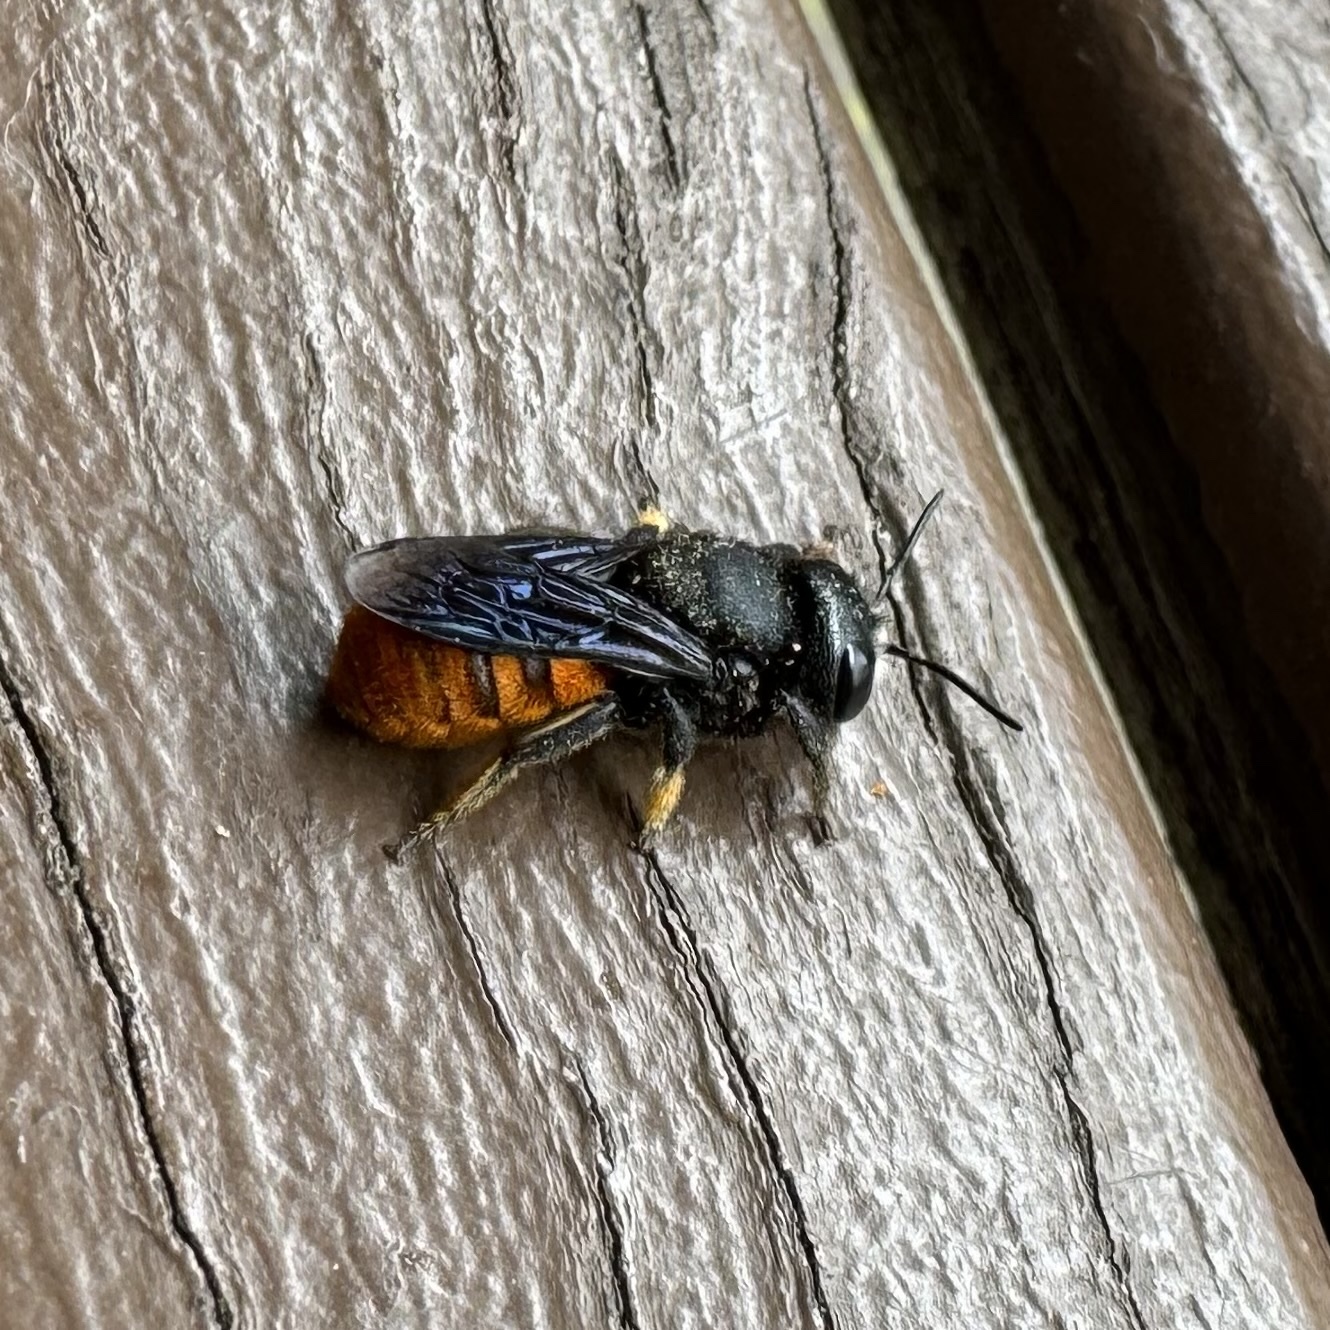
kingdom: Animalia
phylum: Arthropoda
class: Insecta
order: Hymenoptera
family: Megachilidae
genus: Megachile
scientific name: Megachile ustulata
